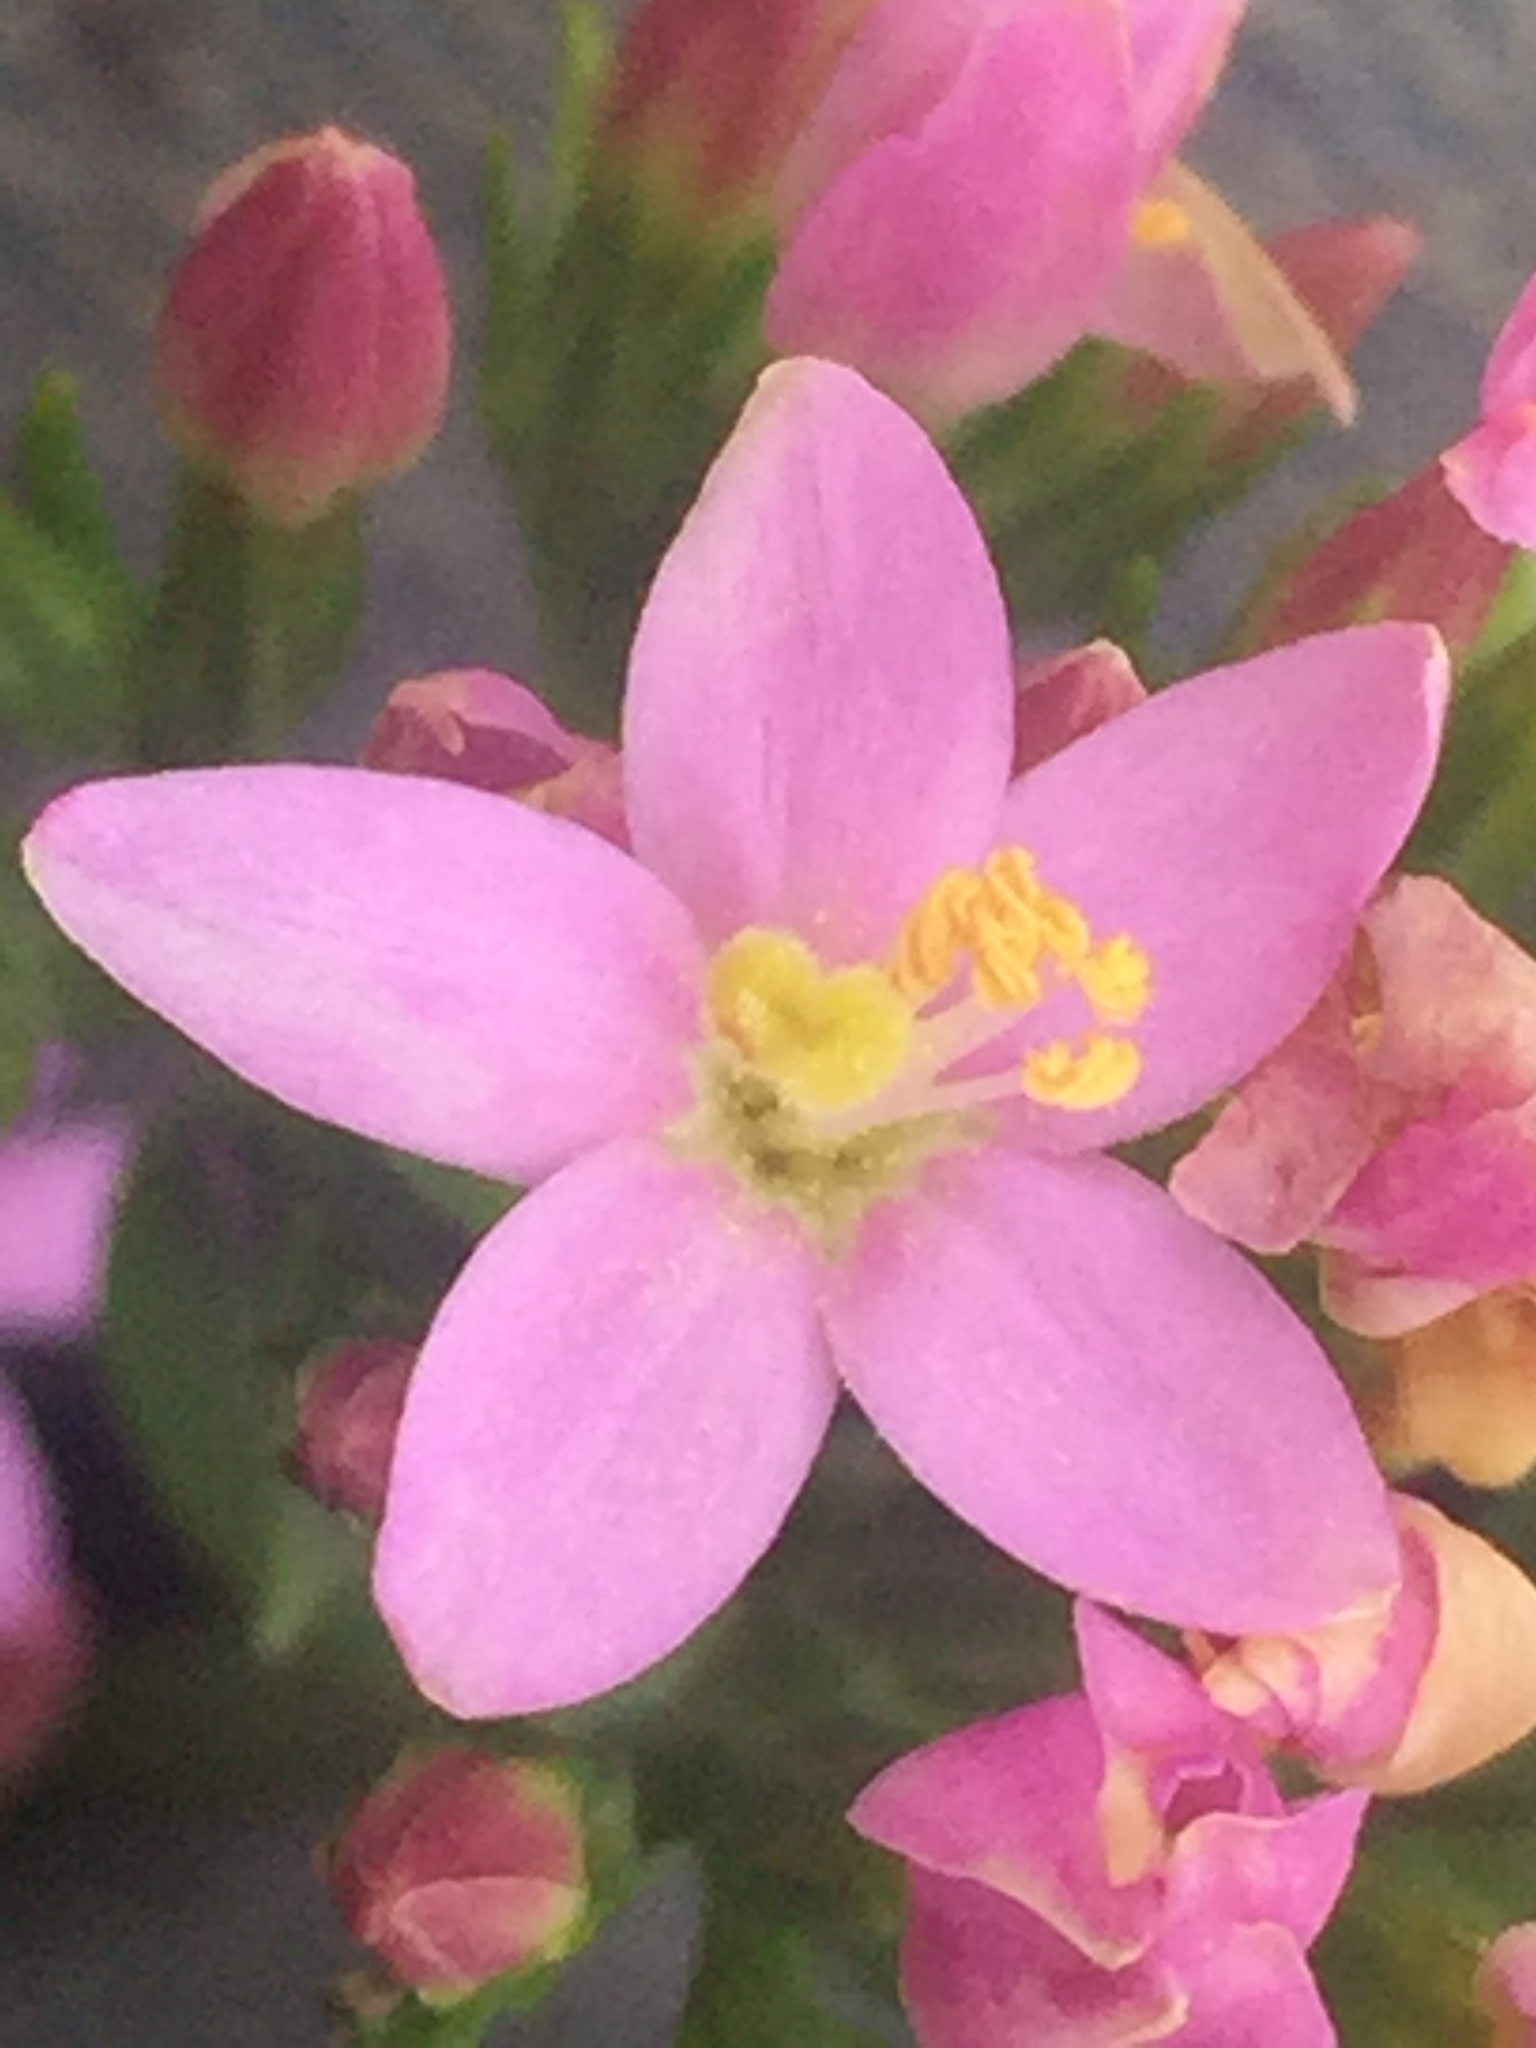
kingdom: Plantae
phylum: Tracheophyta
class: Magnoliopsida
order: Gentianales
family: Gentianaceae
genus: Centaurium
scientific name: Centaurium erythraea
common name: Common centaury
